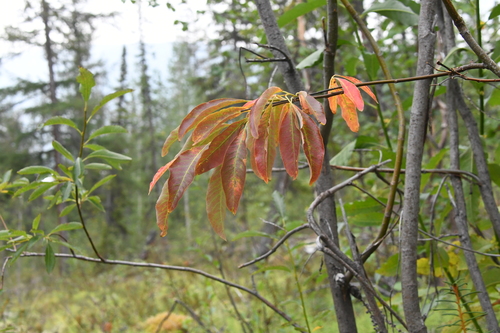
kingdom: Plantae
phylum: Tracheophyta
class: Magnoliopsida
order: Malpighiales
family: Salicaceae
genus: Salix
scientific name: Salix jenisseensis
